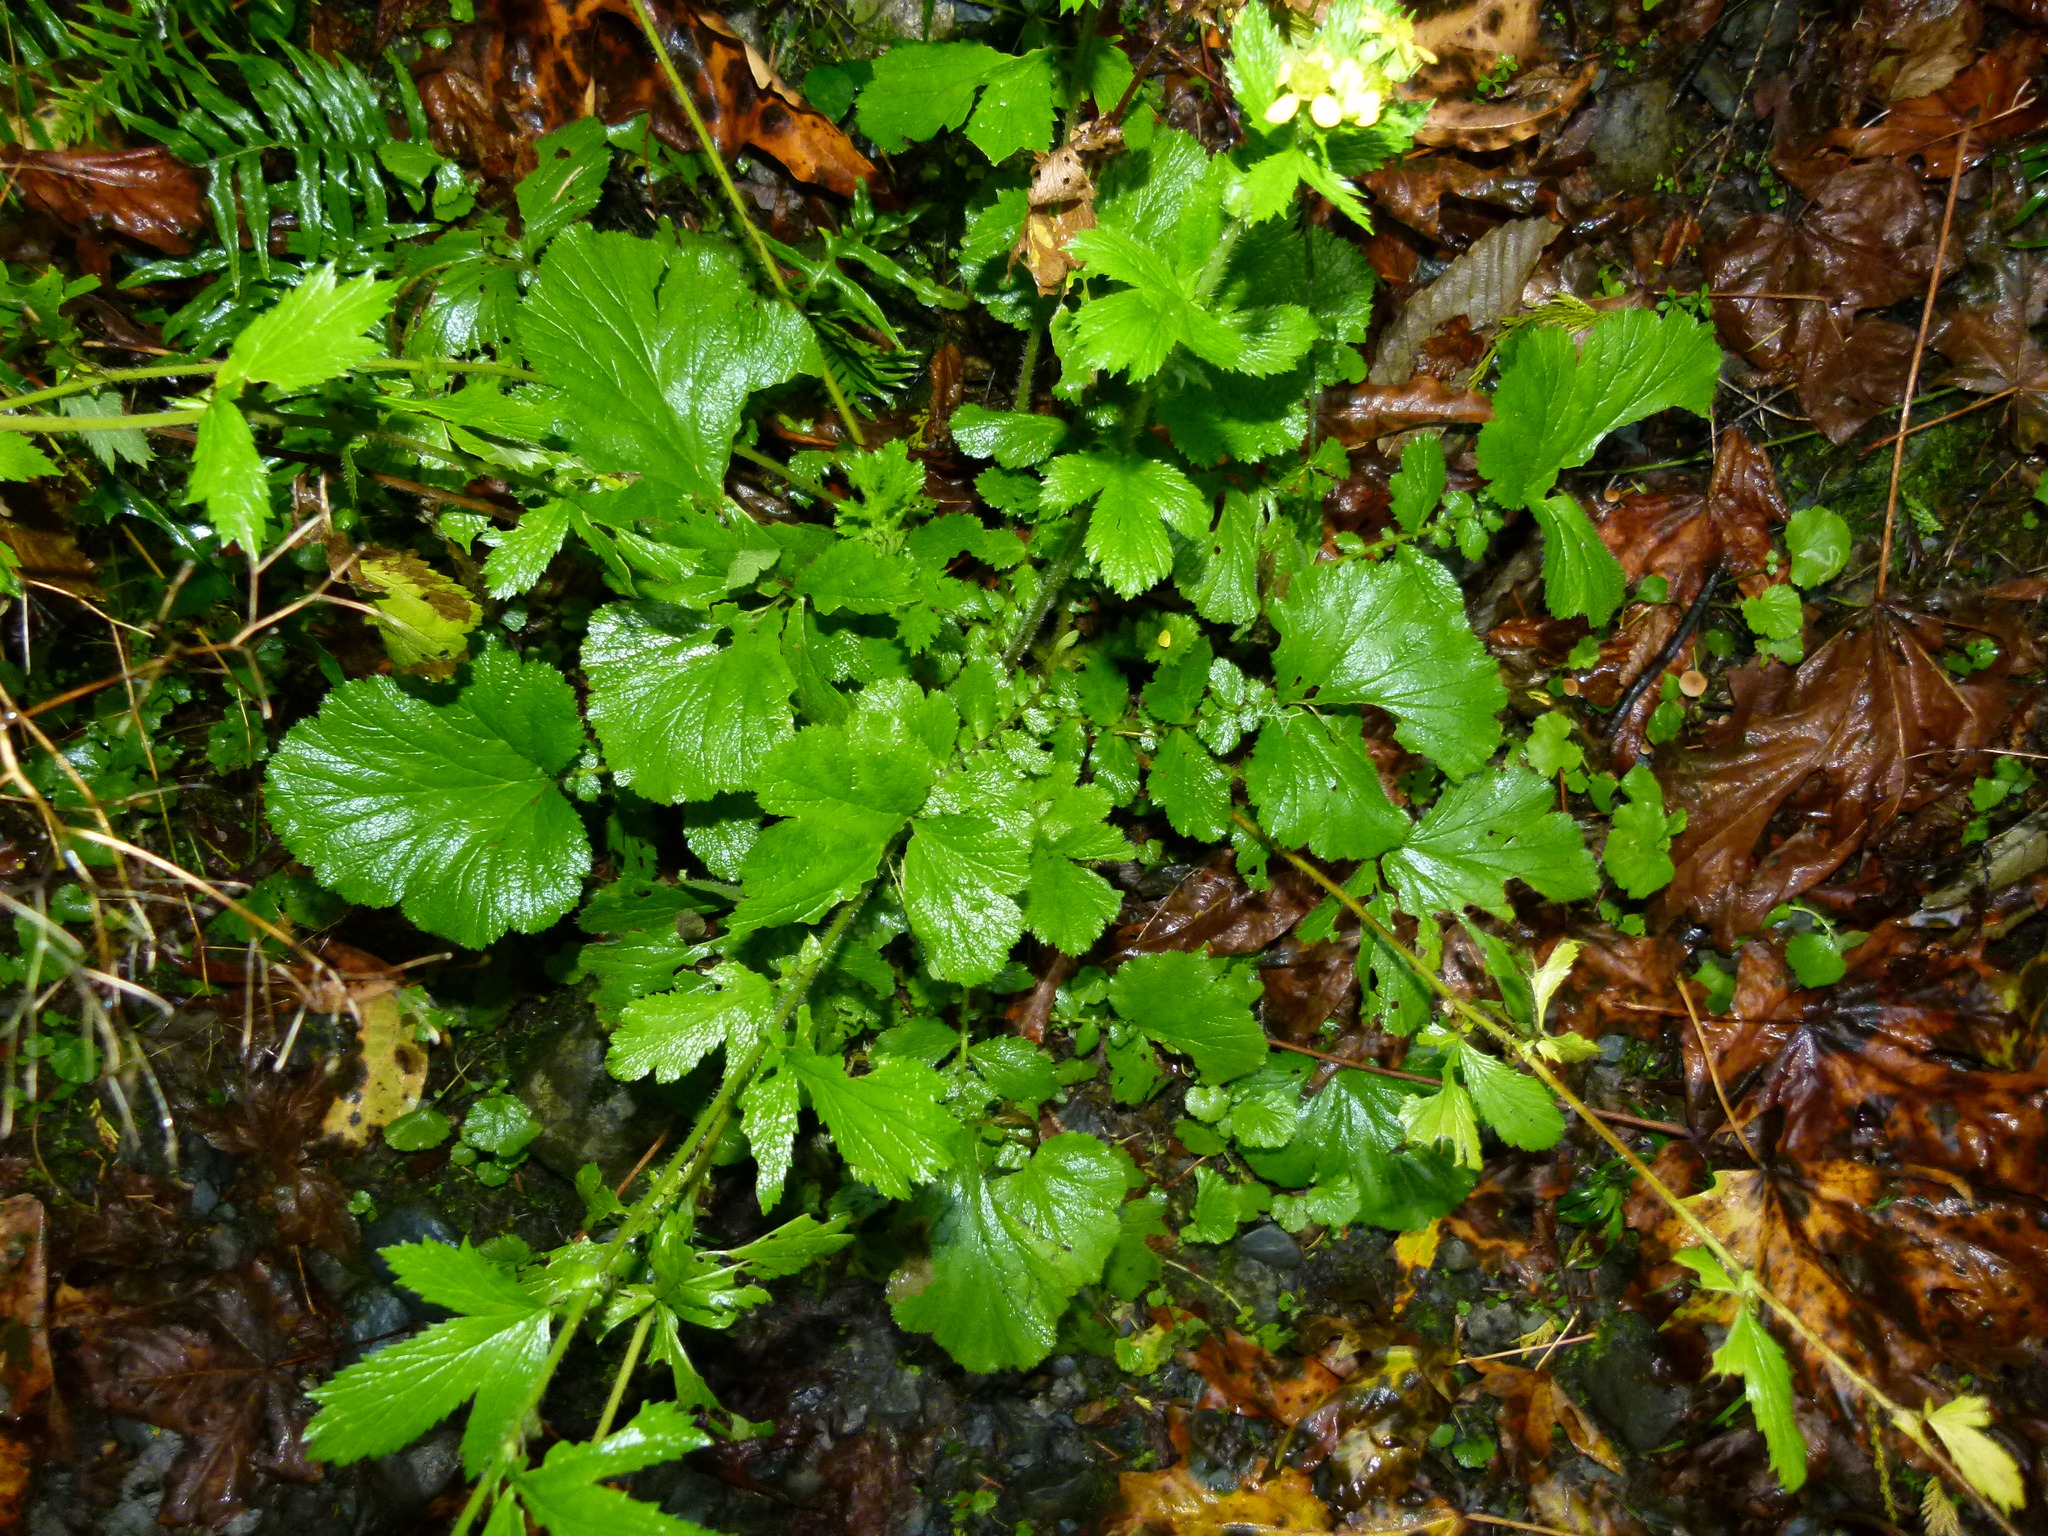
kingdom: Plantae
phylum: Tracheophyta
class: Magnoliopsida
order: Rosales
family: Rosaceae
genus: Geum
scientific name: Geum macrophyllum
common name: Large-leaved avens
